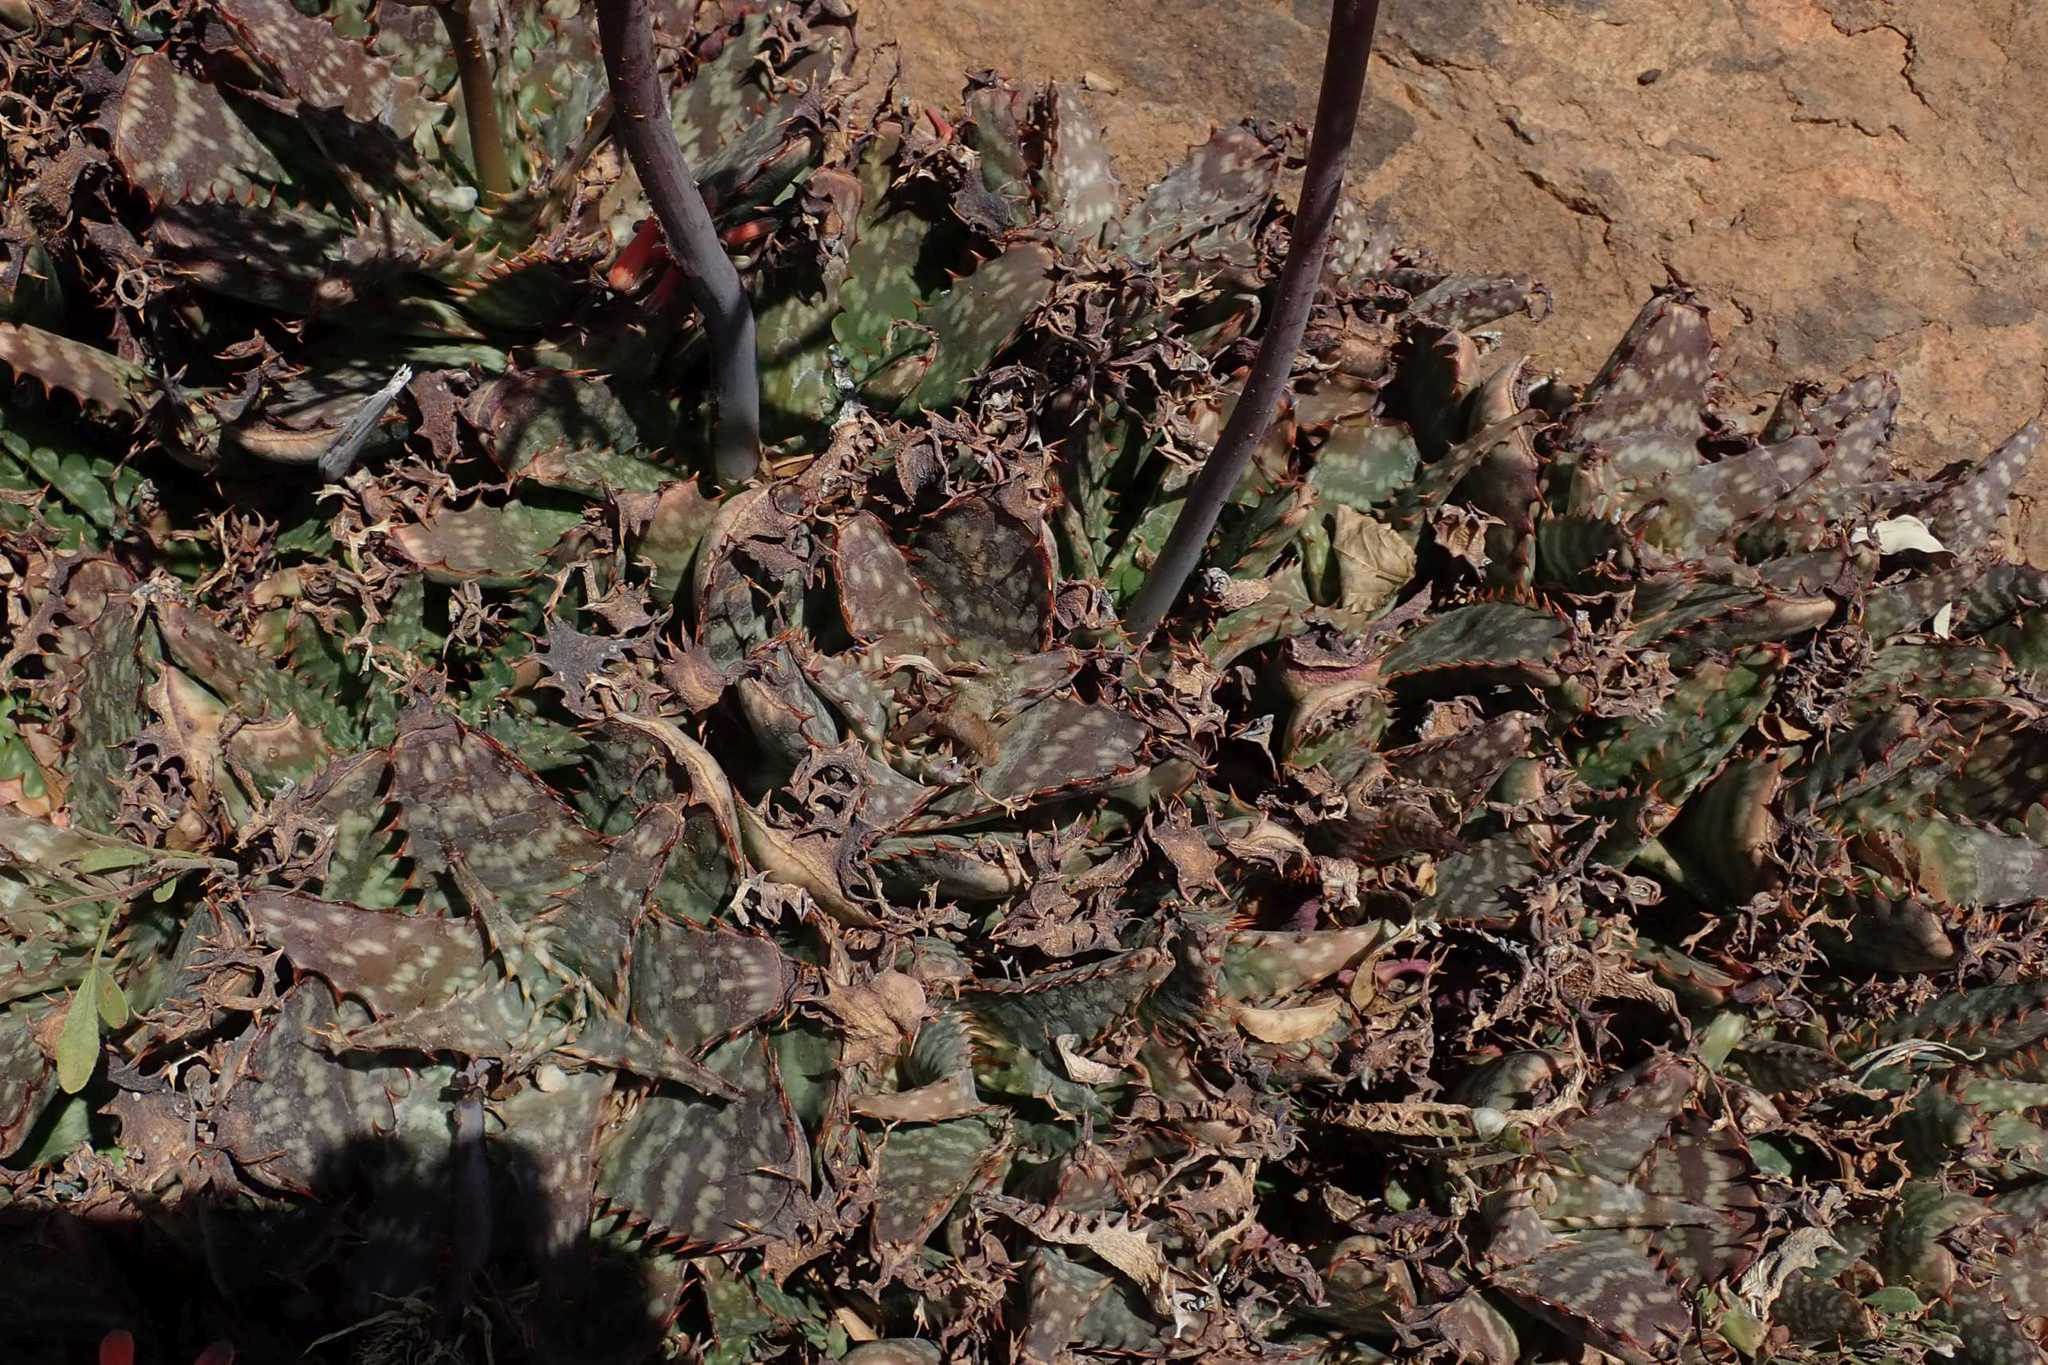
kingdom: Plantae
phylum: Tracheophyta
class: Liliopsida
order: Asparagales
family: Asphodelaceae
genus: Aloe
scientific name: Aloe grandidentata
